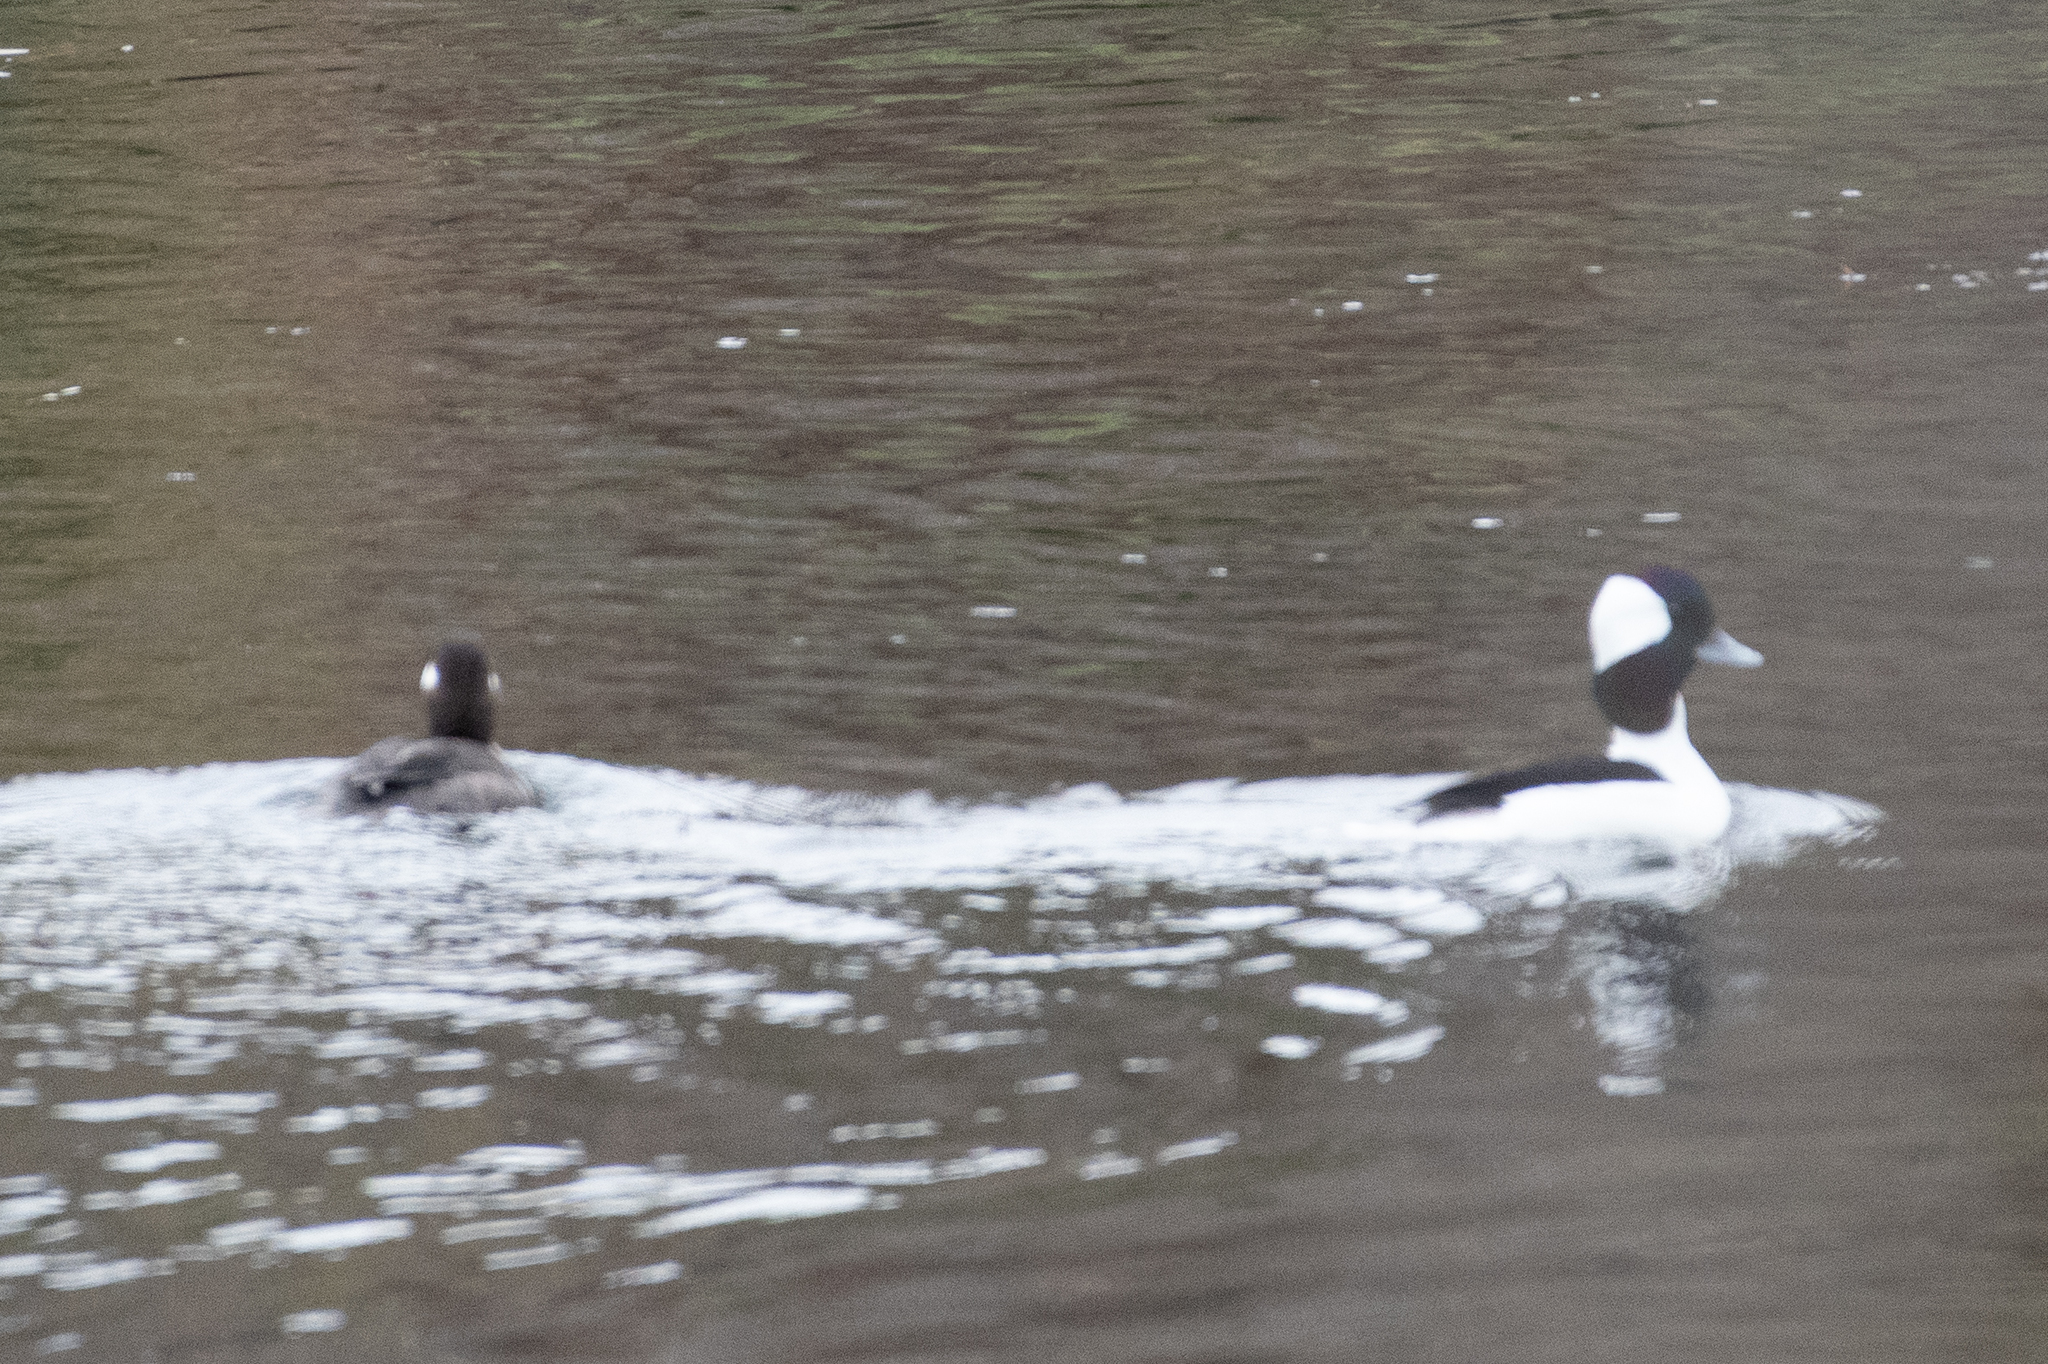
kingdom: Animalia
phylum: Chordata
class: Aves
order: Anseriformes
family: Anatidae
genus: Bucephala
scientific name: Bucephala albeola
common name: Bufflehead
